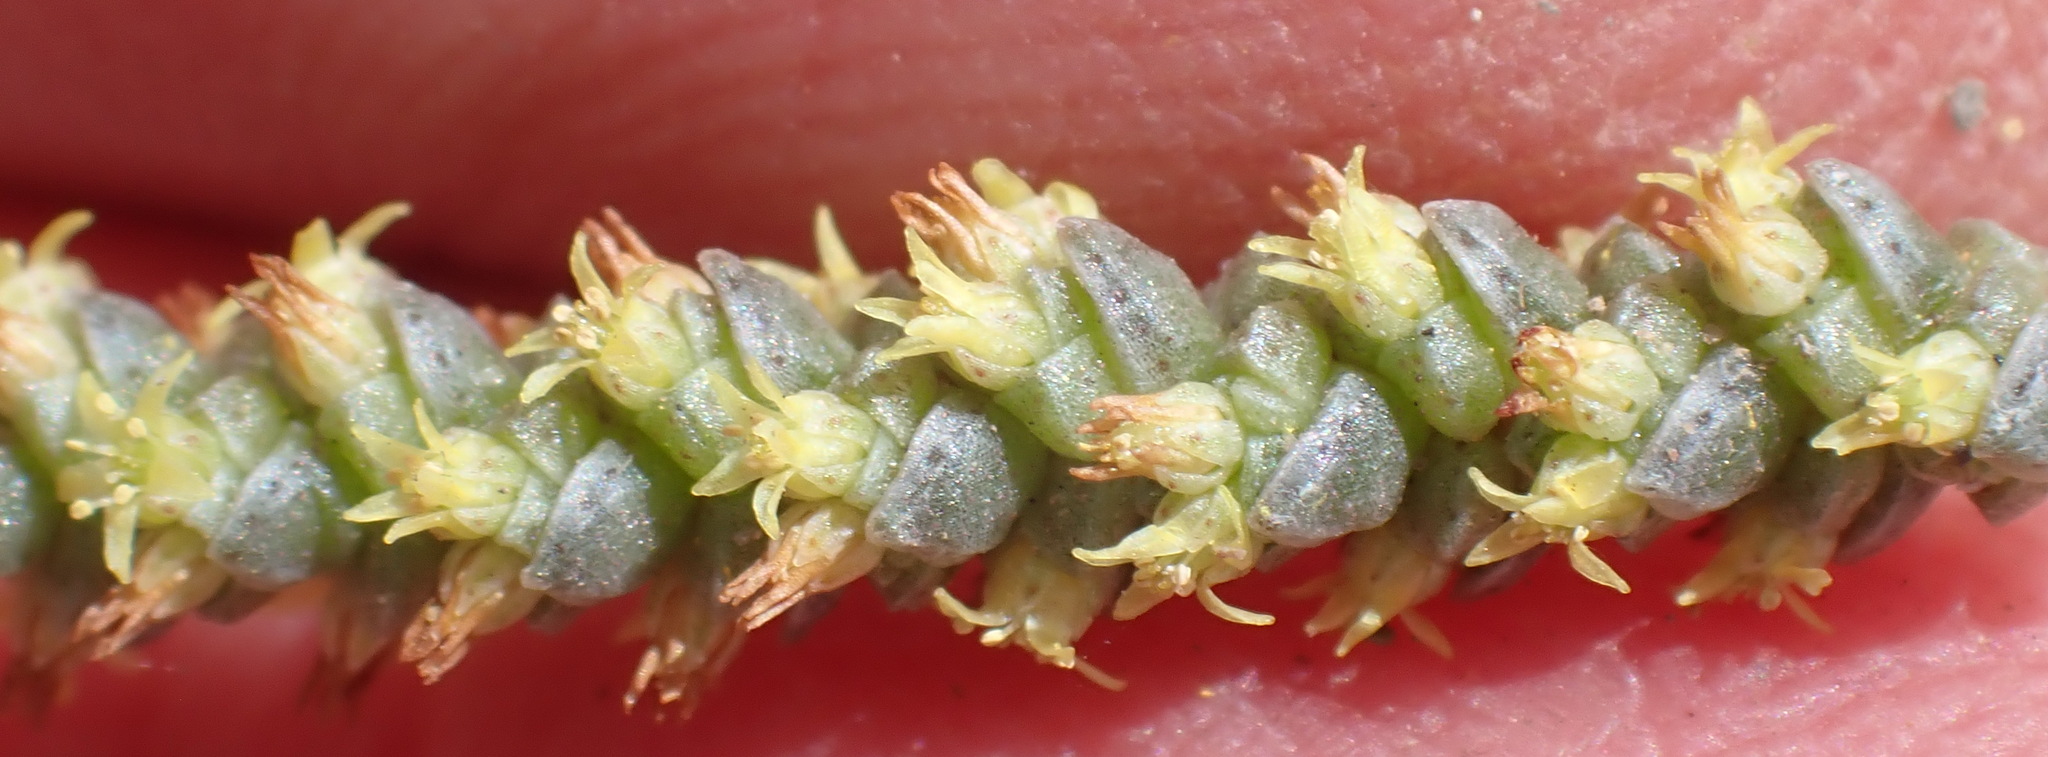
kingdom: Plantae
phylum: Tracheophyta
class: Magnoliopsida
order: Saxifragales
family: Crassulaceae
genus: Crassula
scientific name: Crassula muscosa
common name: Toy-cypress
